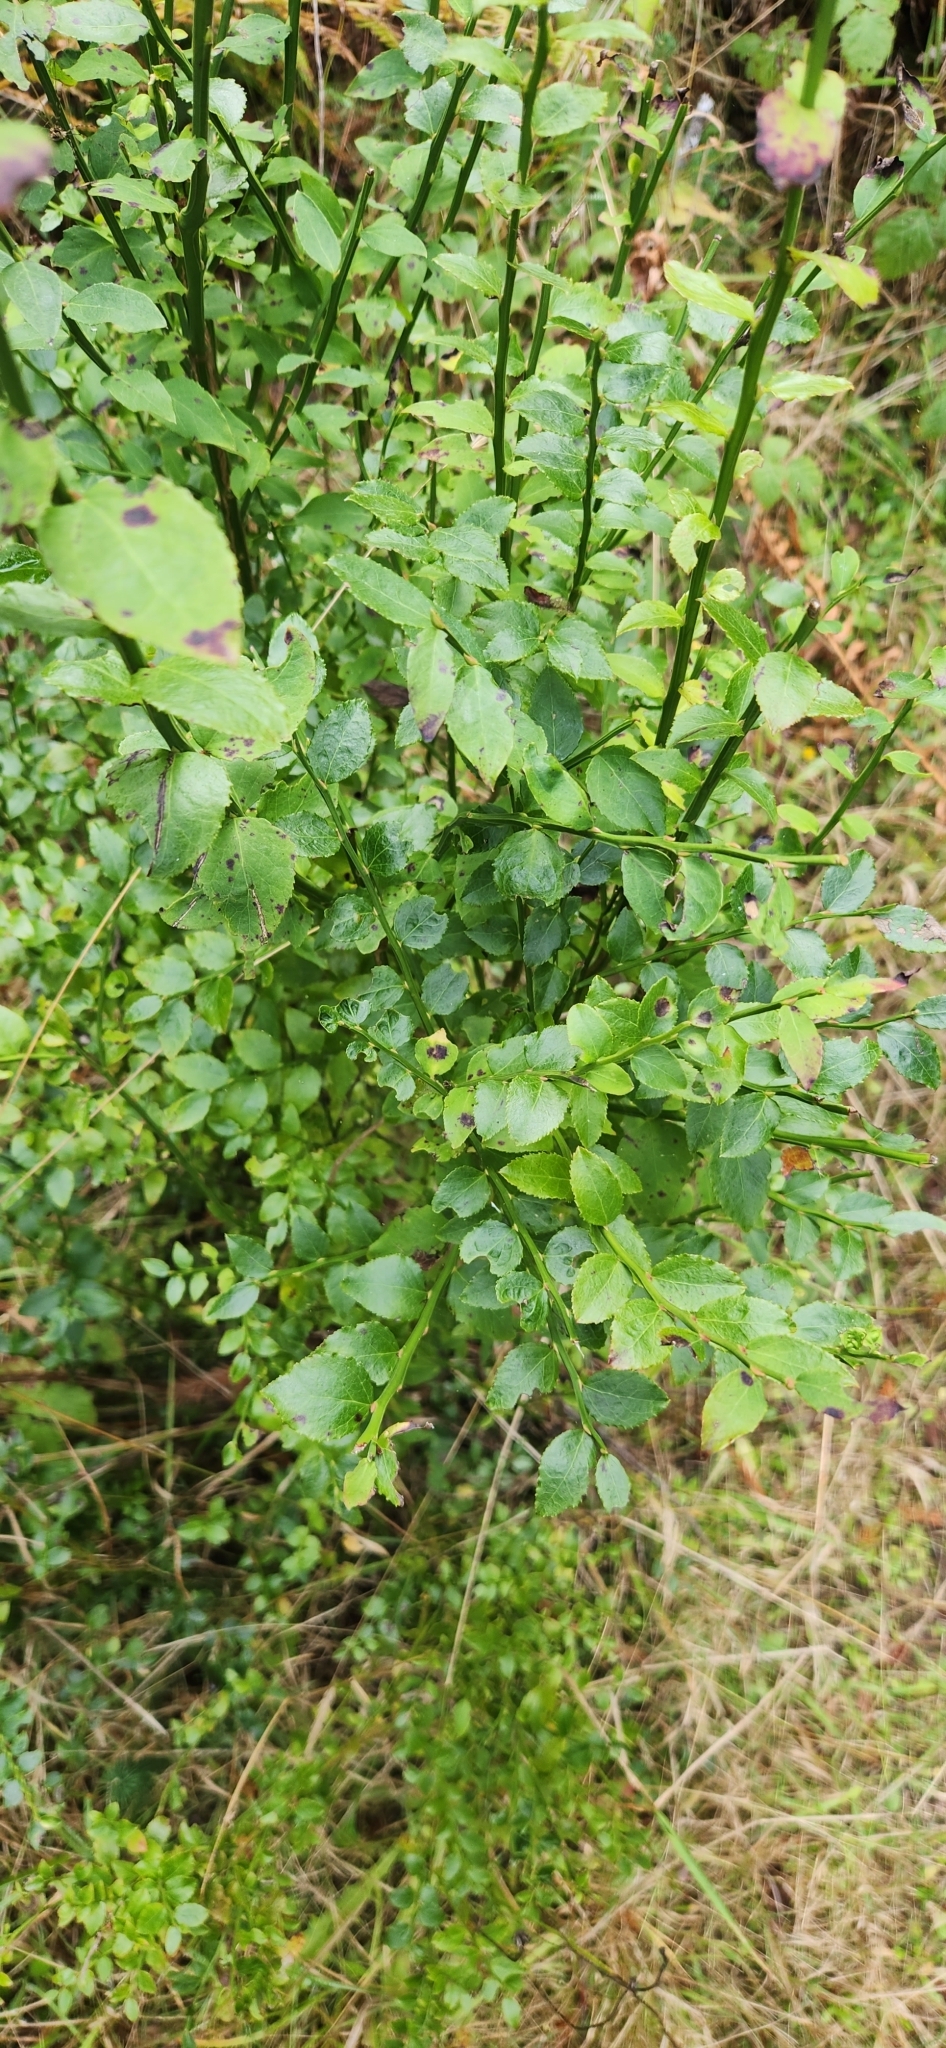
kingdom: Plantae
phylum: Tracheophyta
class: Magnoliopsida
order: Ericales
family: Ericaceae
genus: Vaccinium
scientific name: Vaccinium parvifolium
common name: Red-huckleberry
